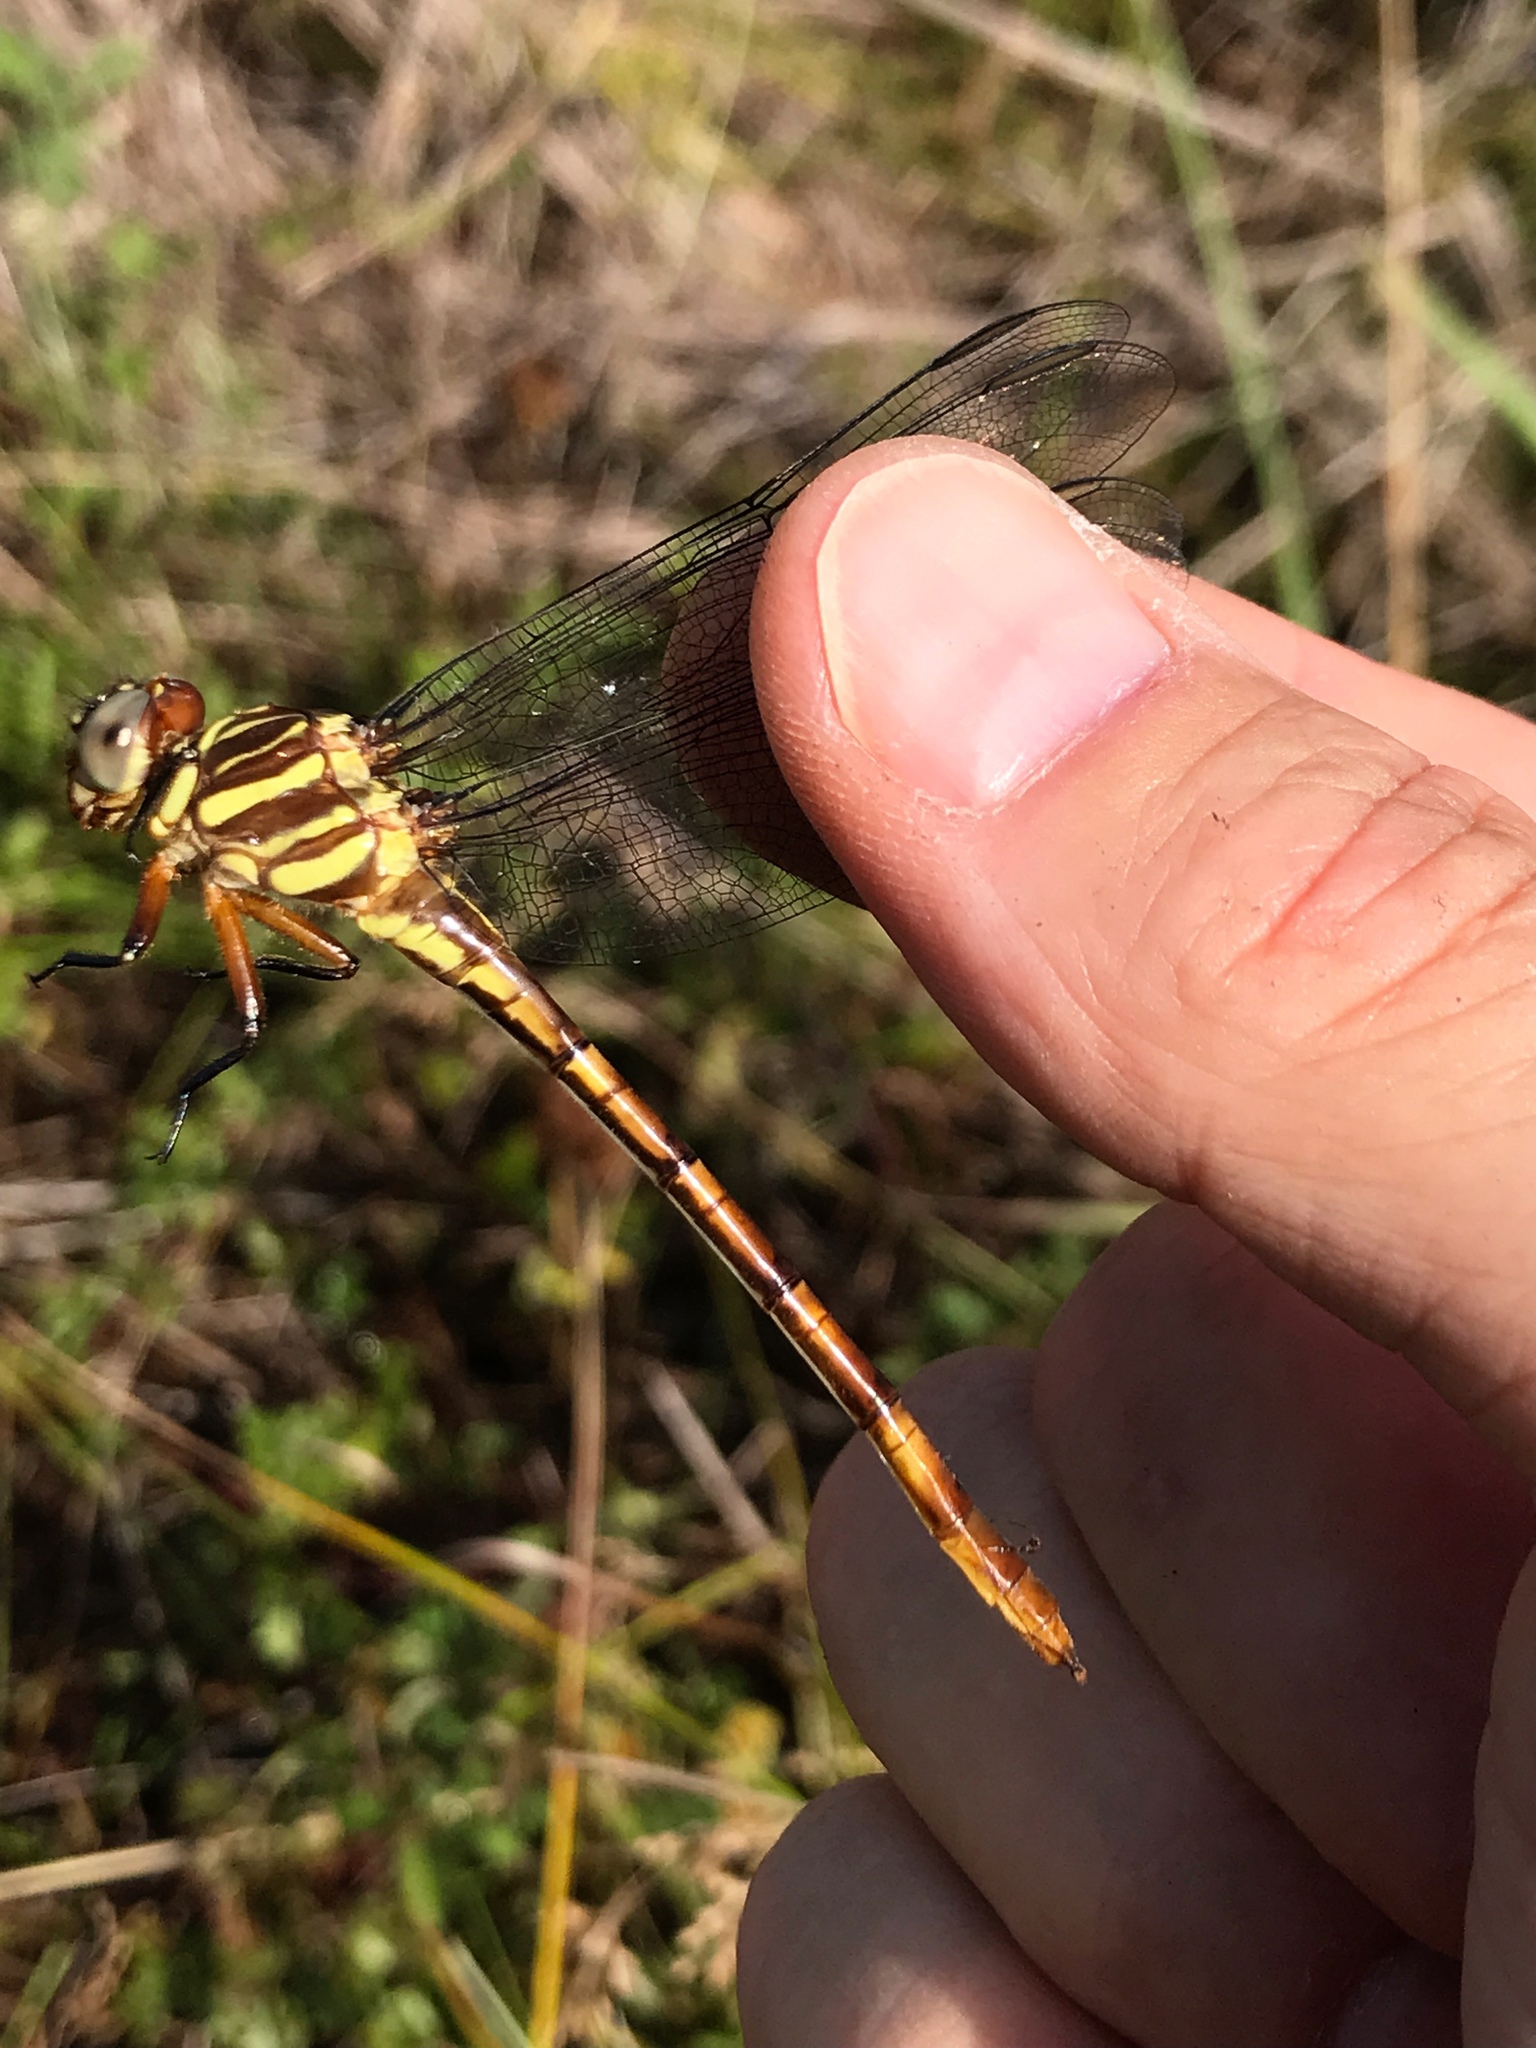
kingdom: Animalia
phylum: Arthropoda
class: Insecta
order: Odonata
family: Gomphidae
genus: Aphylla
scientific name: Aphylla angustifolia
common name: Broad-striped forceptail
